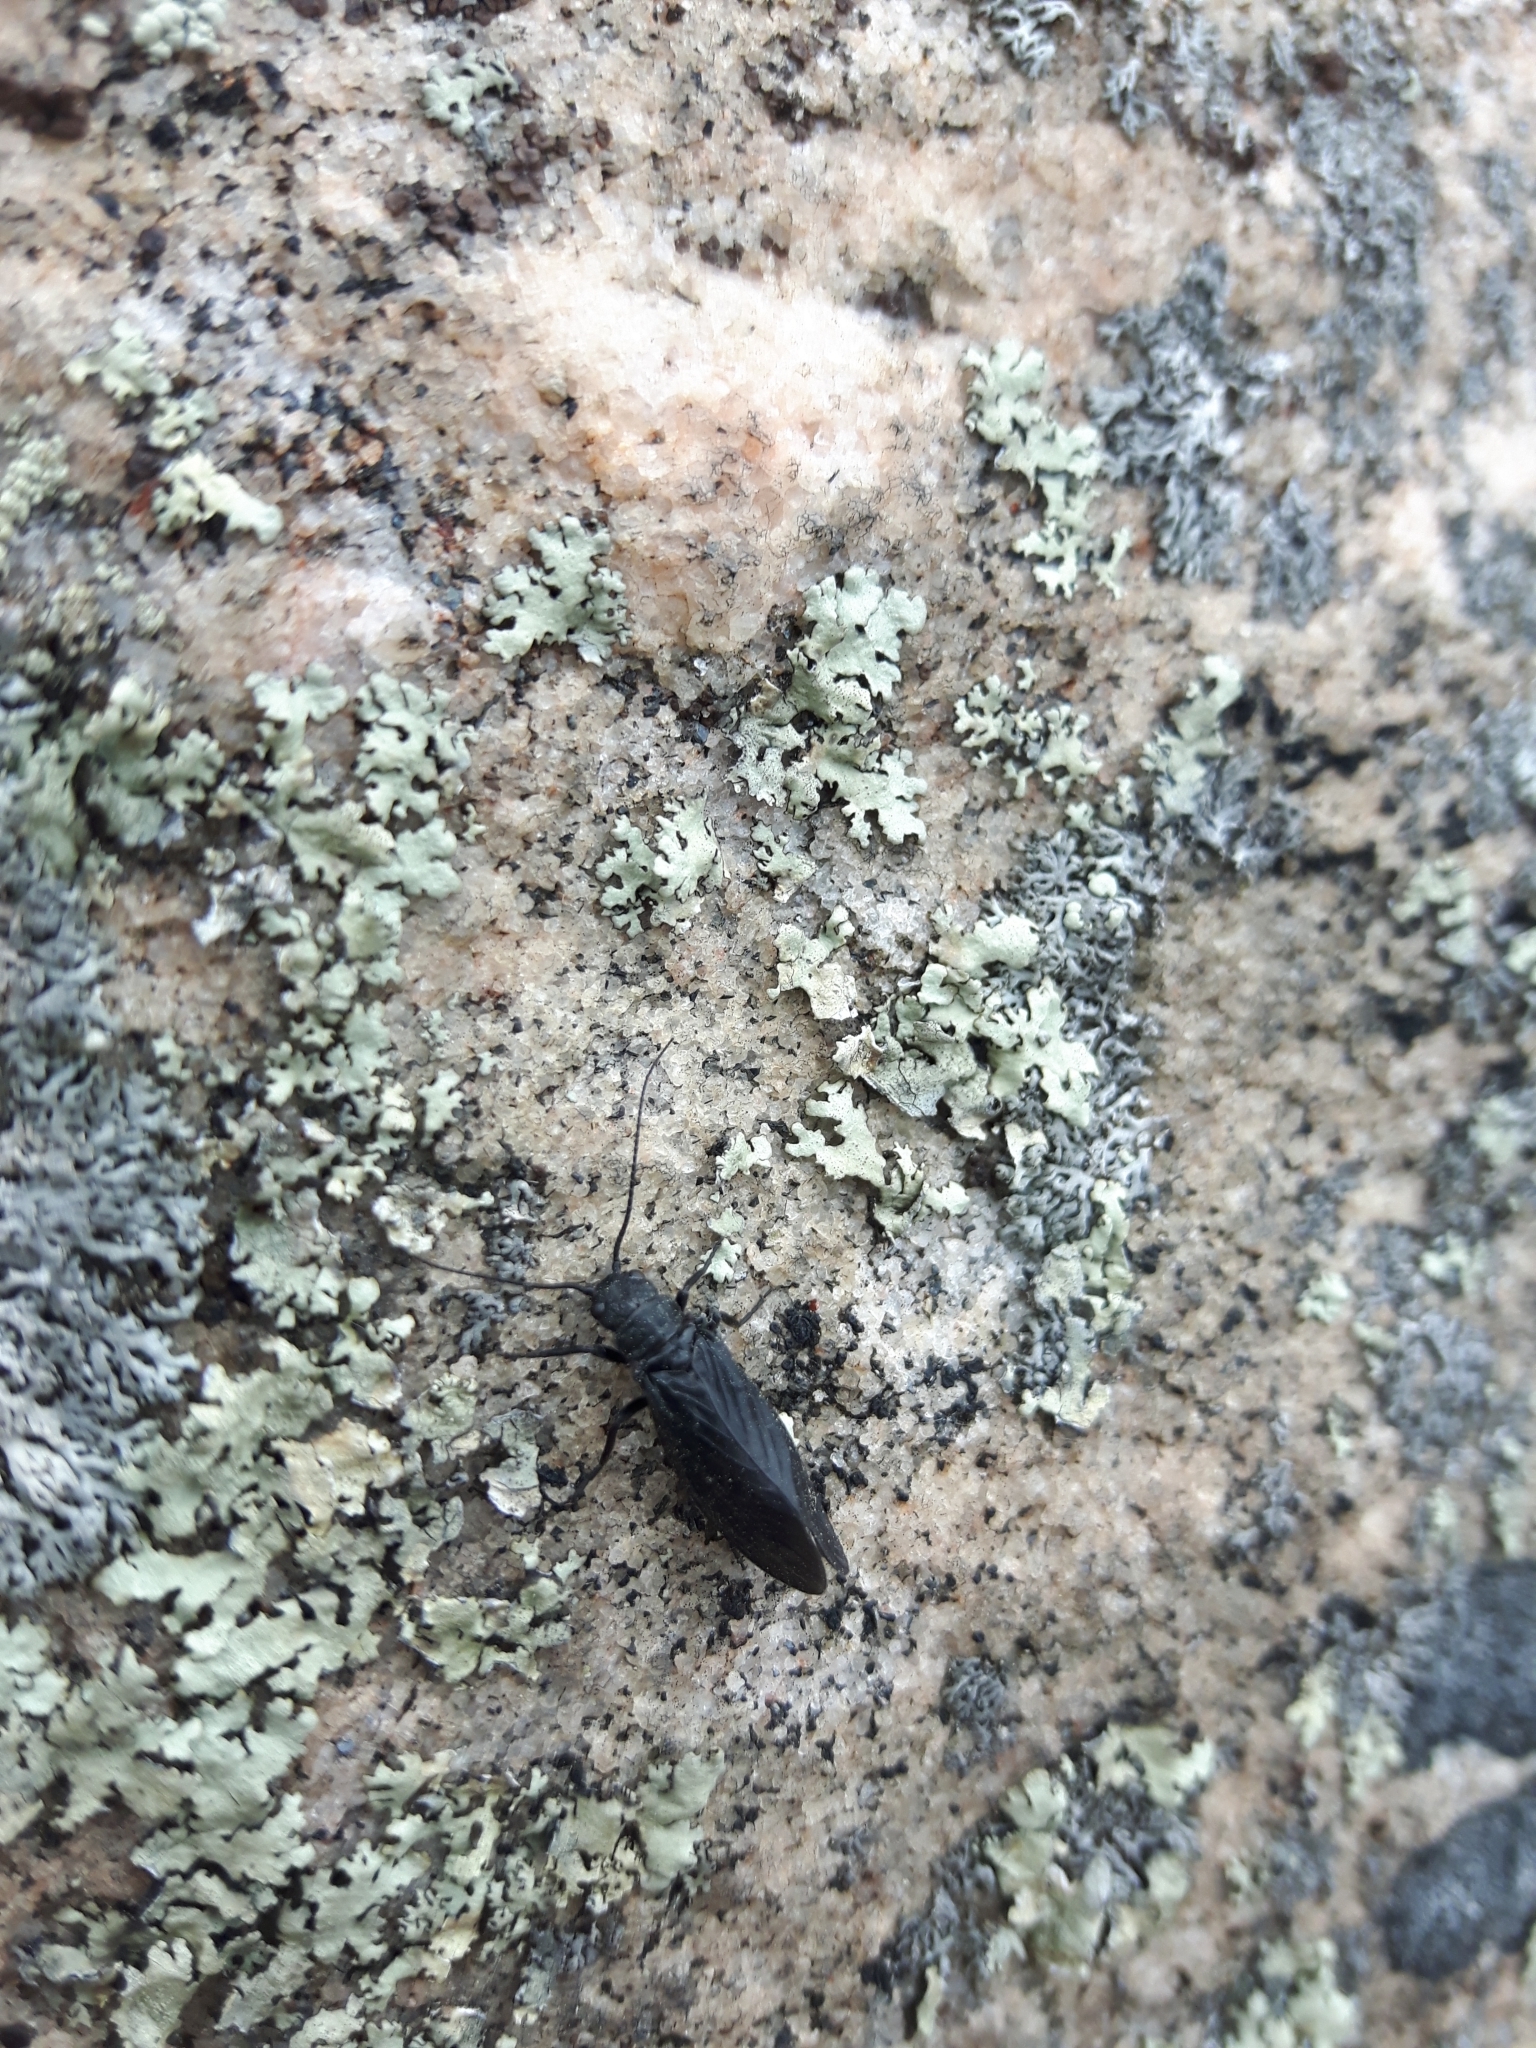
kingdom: Animalia
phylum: Arthropoda
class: Insecta
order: Megaloptera
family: Sialidae
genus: Sialis
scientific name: Sialis
